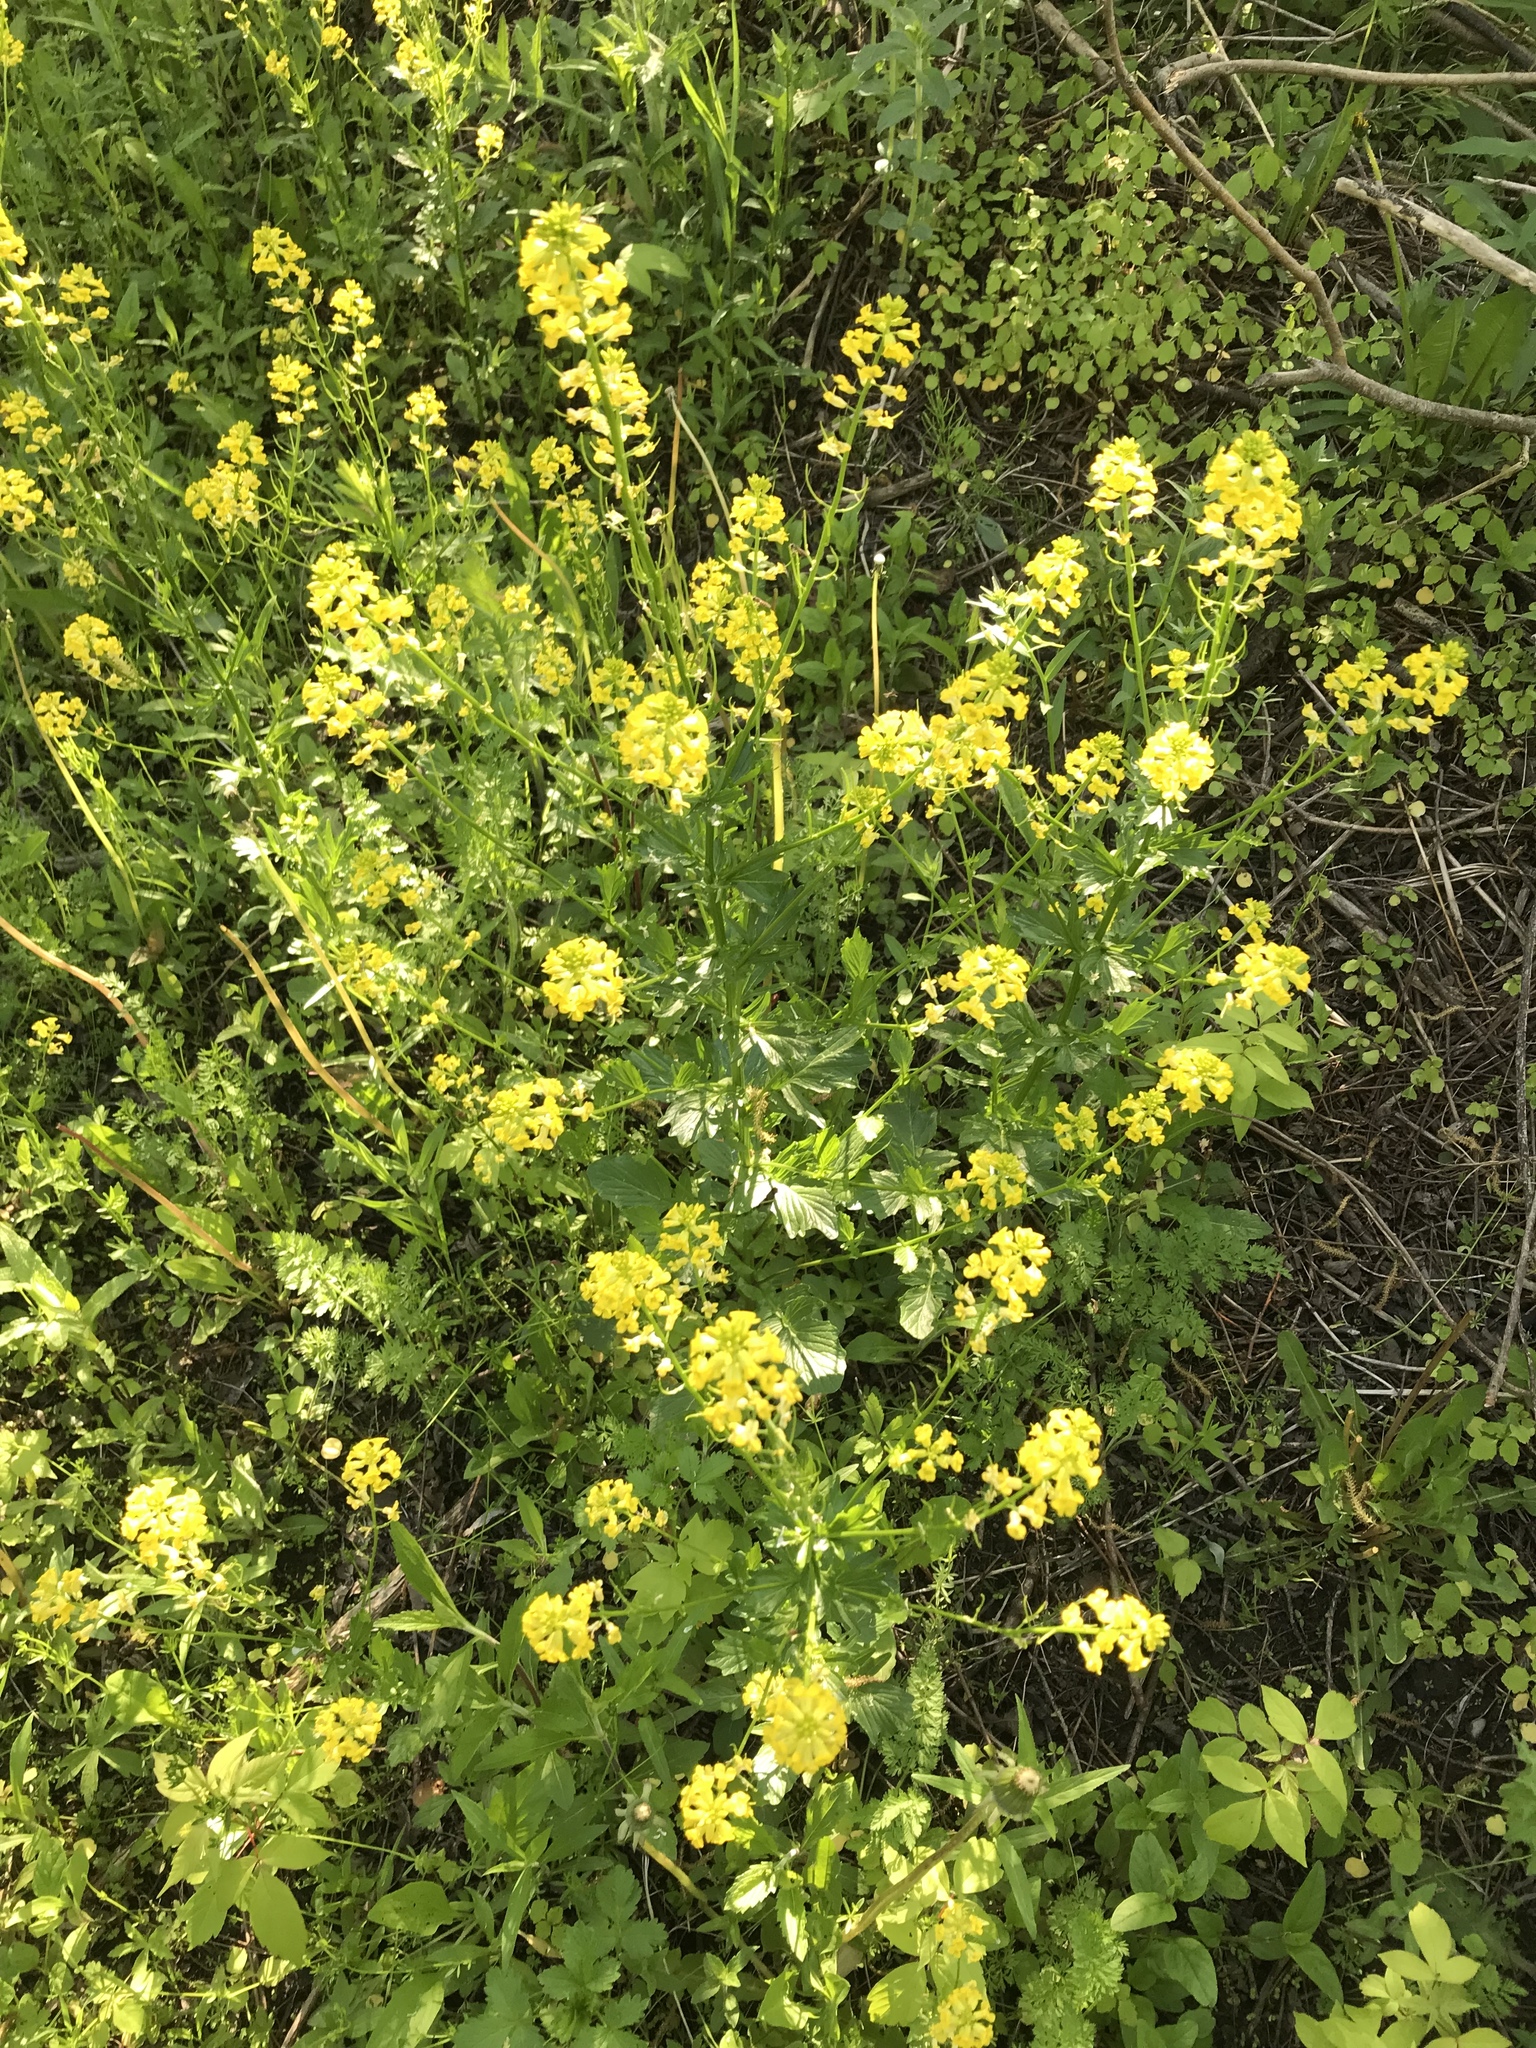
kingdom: Plantae
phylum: Tracheophyta
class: Magnoliopsida
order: Brassicales
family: Brassicaceae
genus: Barbarea
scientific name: Barbarea vulgaris
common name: Cressy-greens
